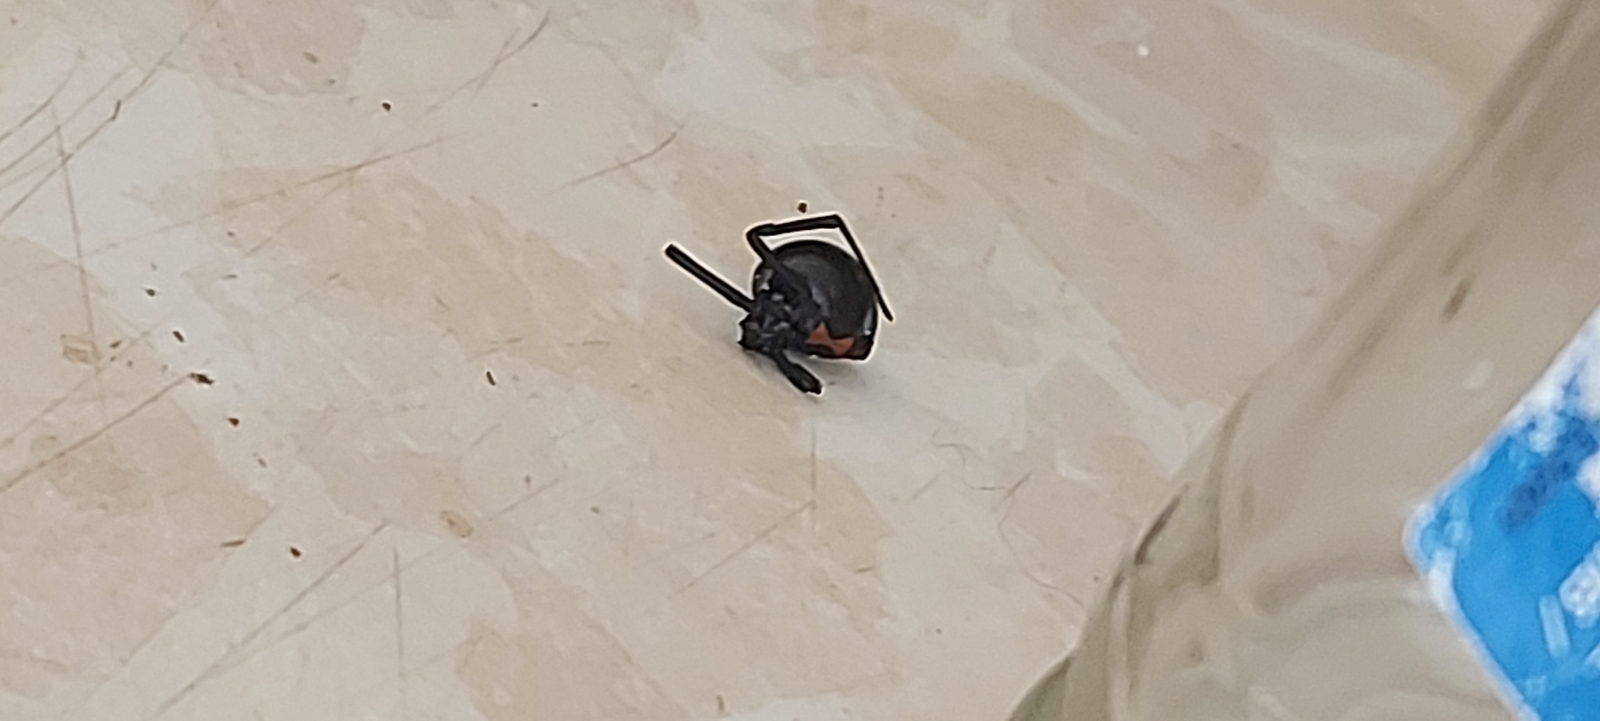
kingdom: Animalia
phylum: Arthropoda
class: Arachnida
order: Araneae
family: Theridiidae
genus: Latrodectus
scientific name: Latrodectus hesperus
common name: Western black widow
